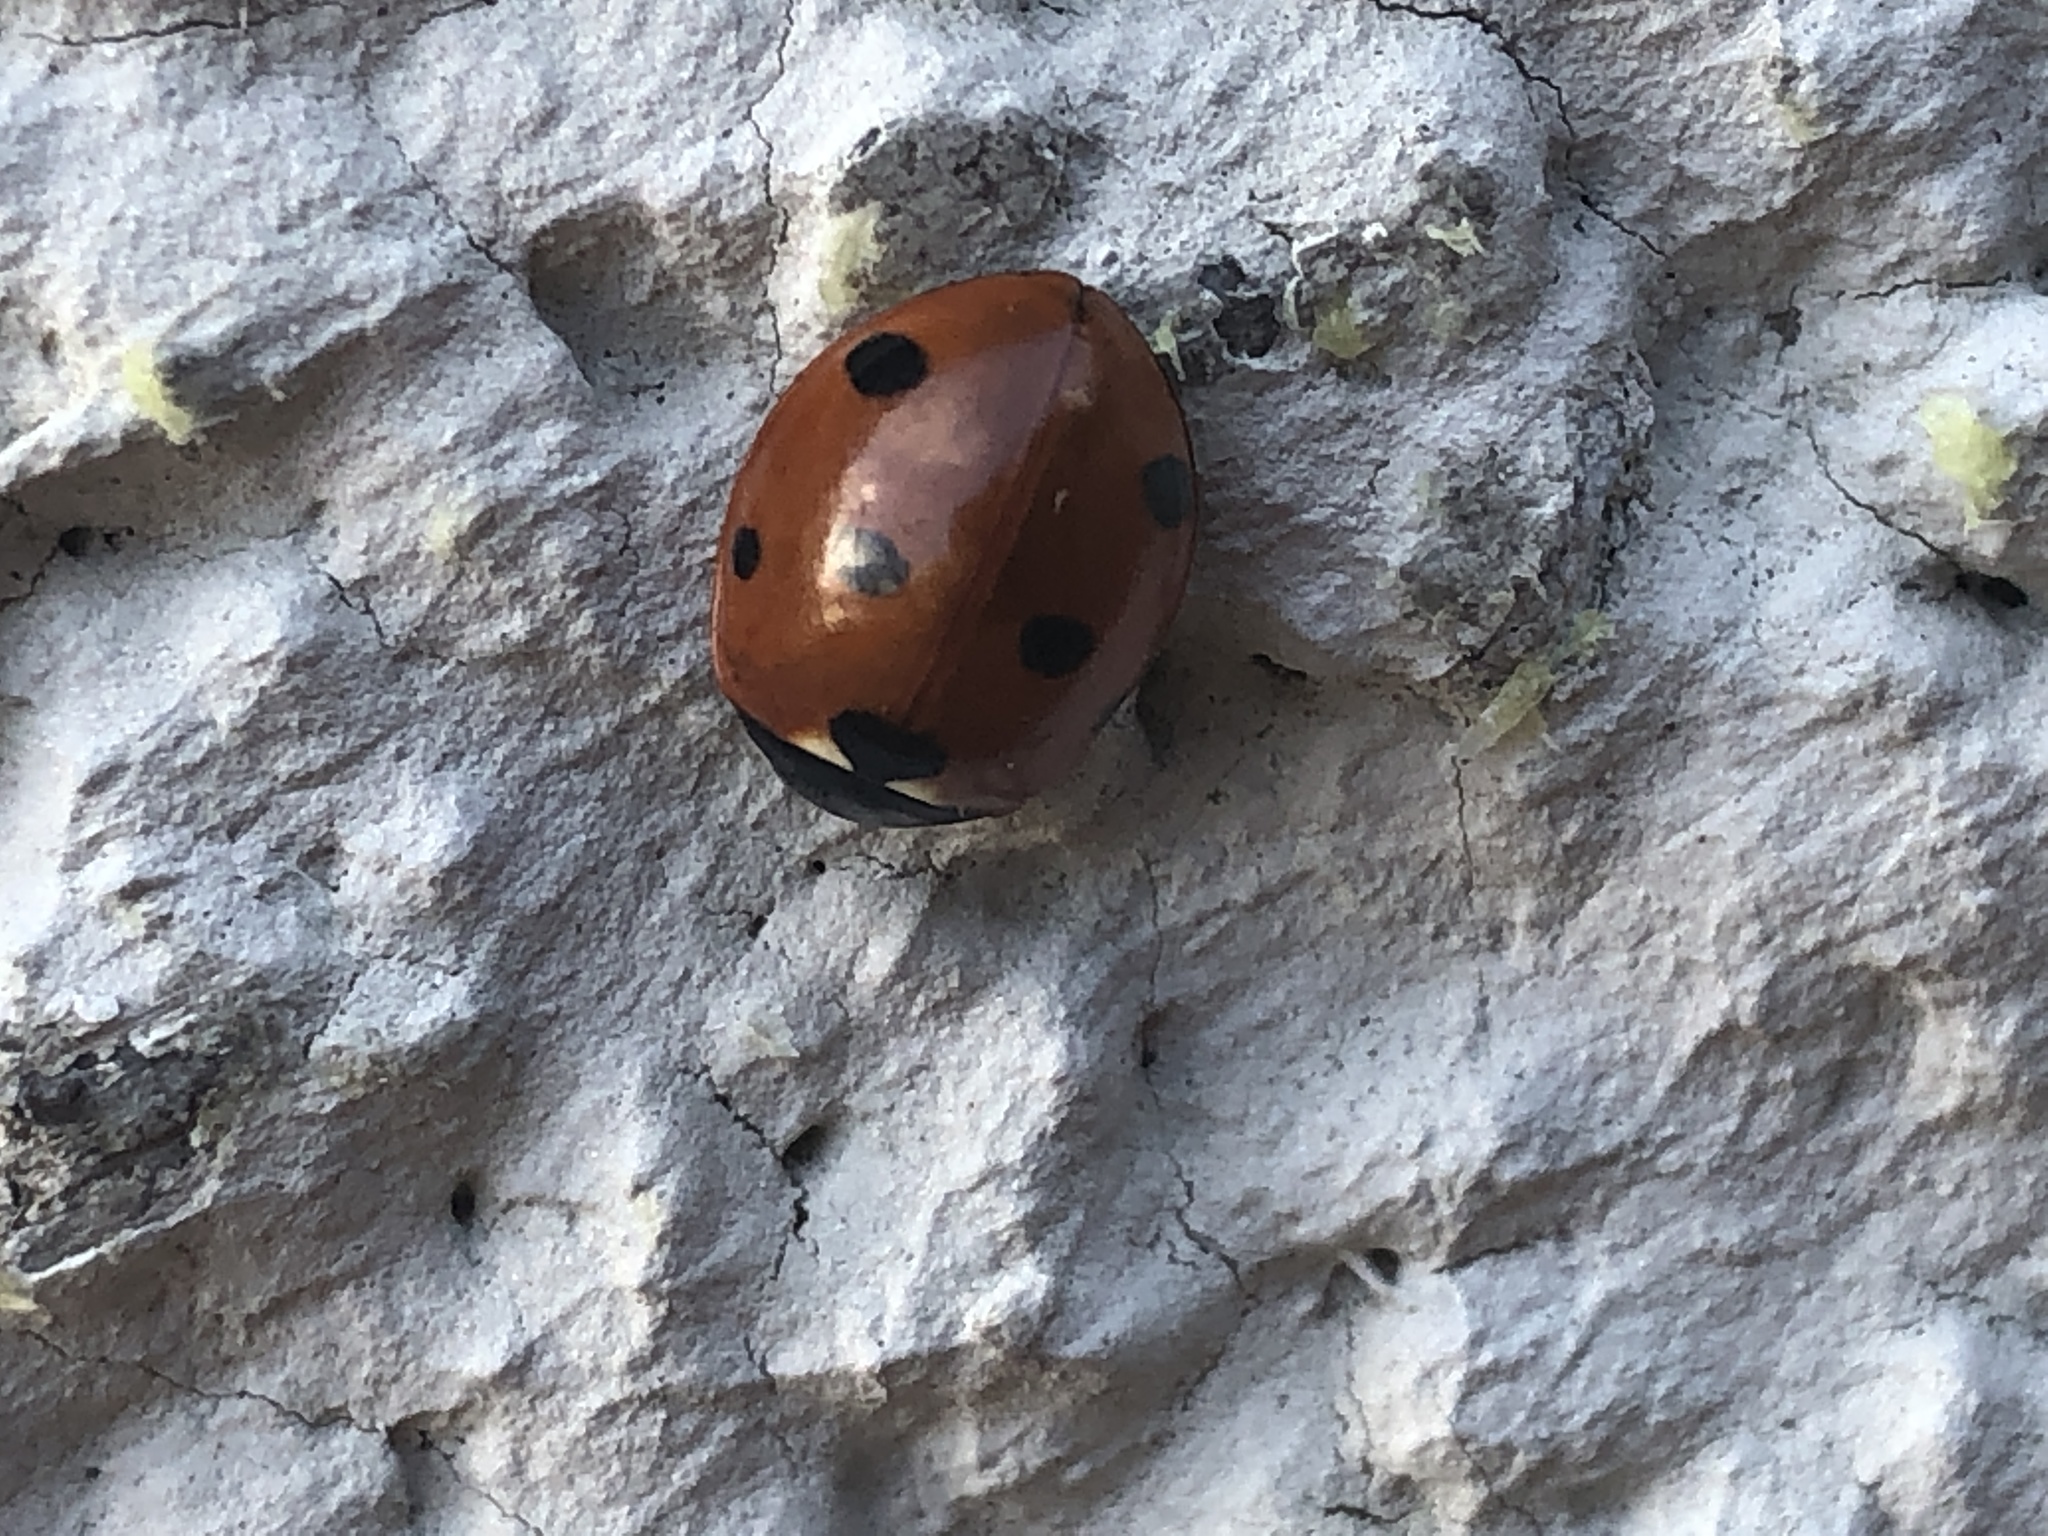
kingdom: Animalia
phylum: Arthropoda
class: Insecta
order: Coleoptera
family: Coccinellidae
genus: Coccinella
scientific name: Coccinella septempunctata
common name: Sevenspotted lady beetle
